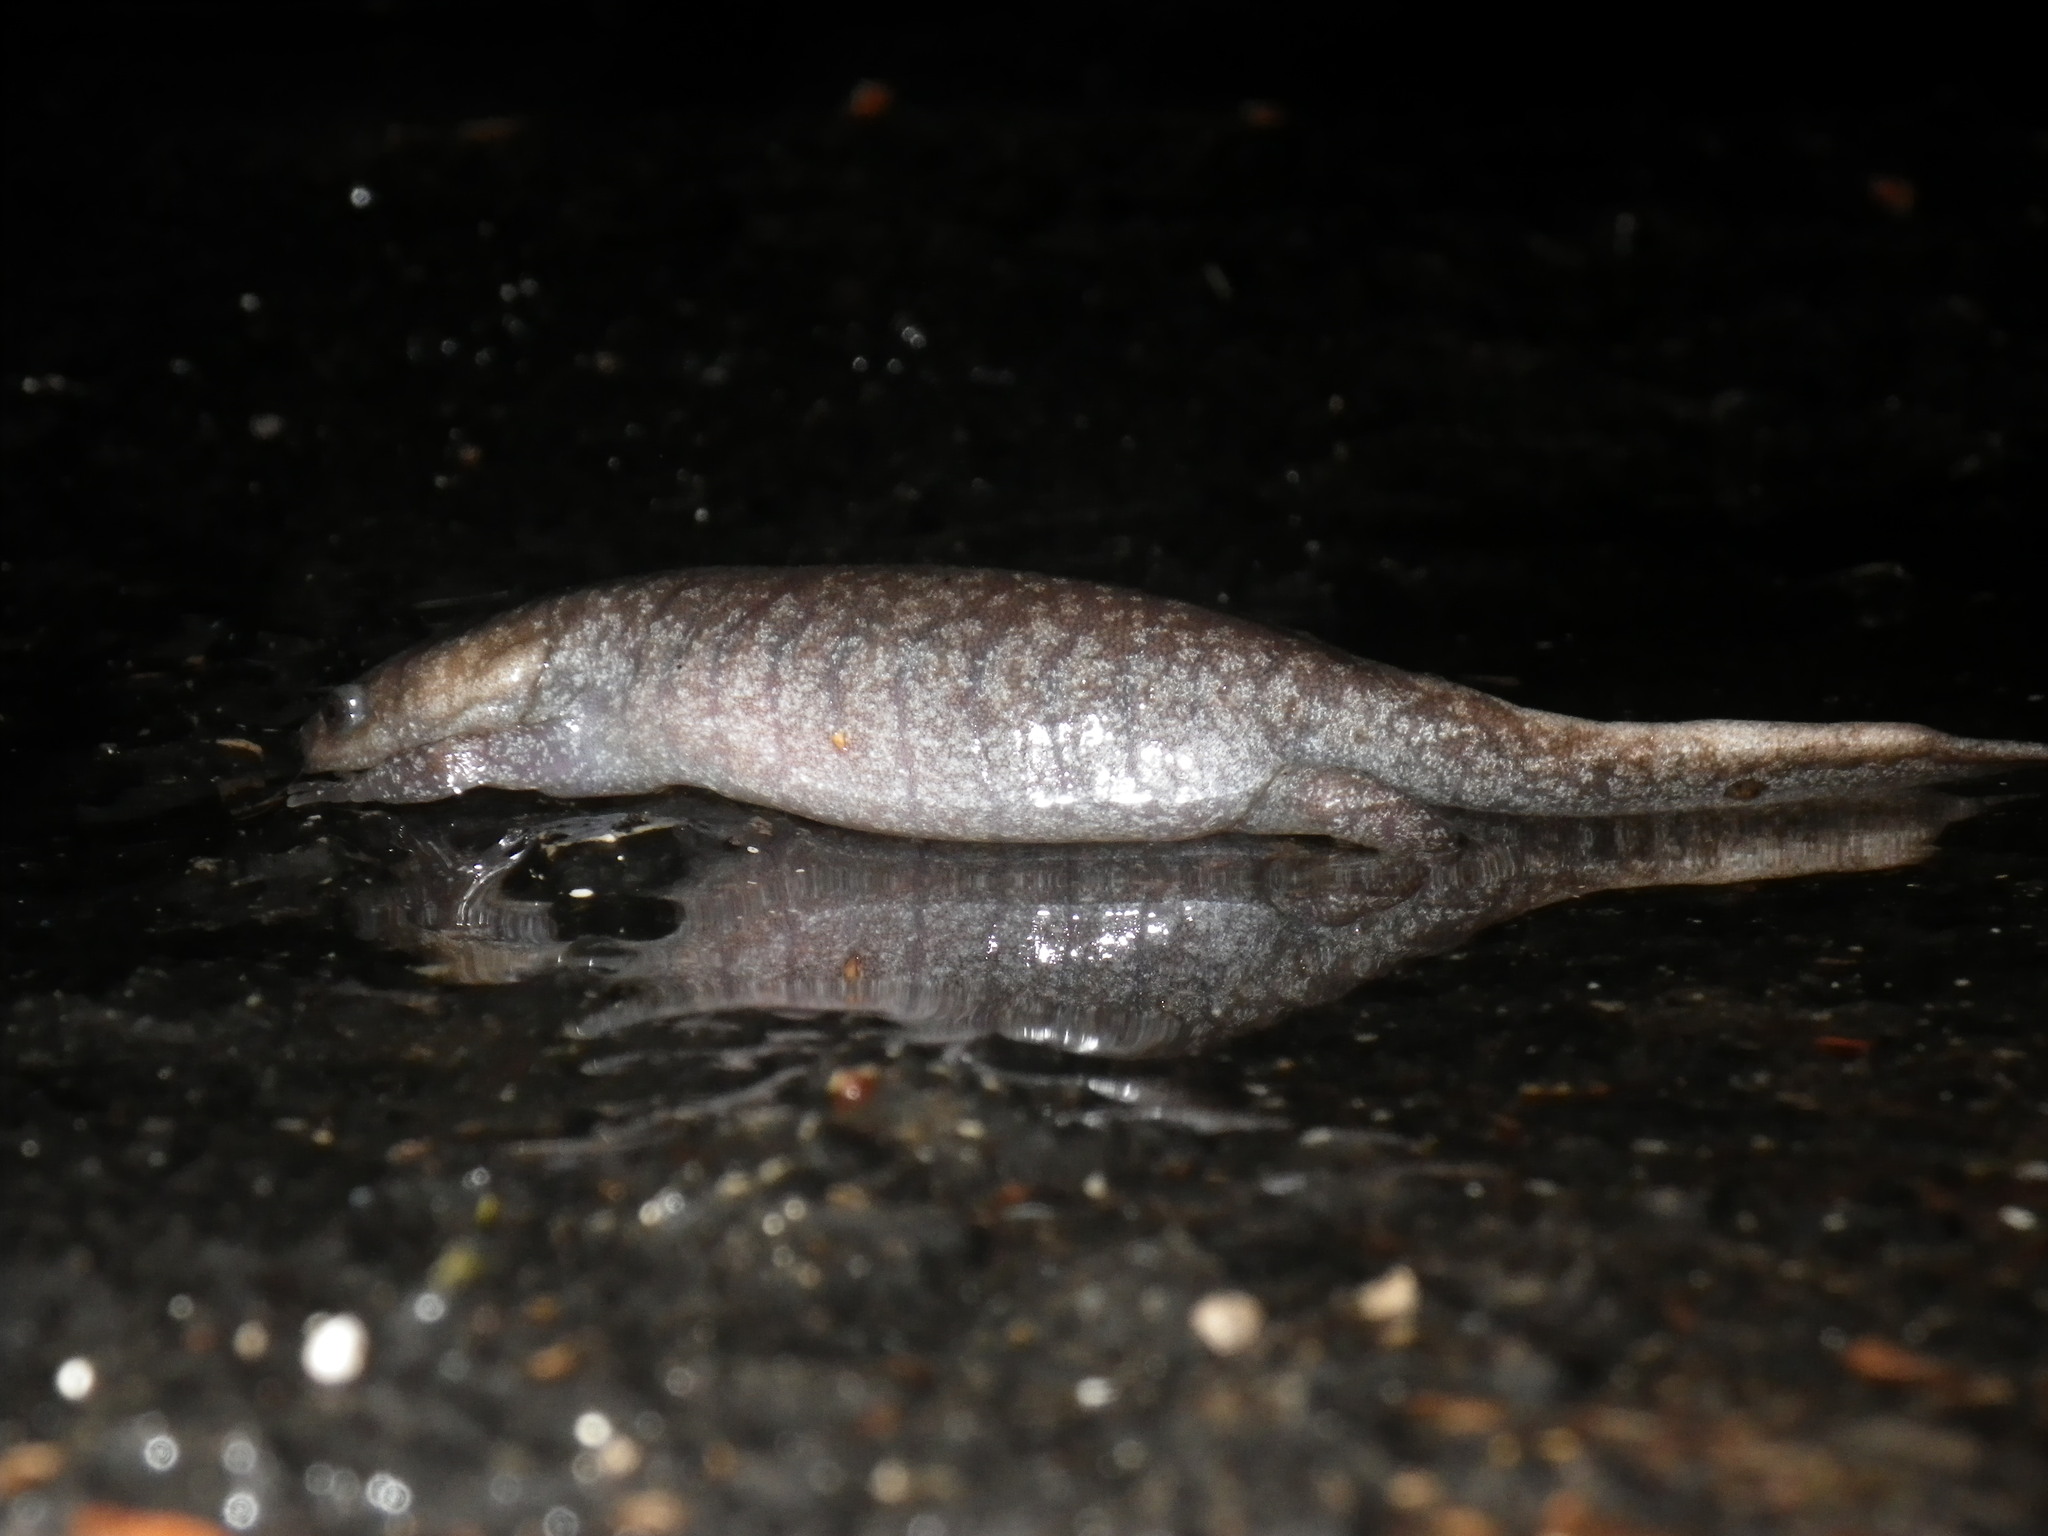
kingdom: Animalia
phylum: Chordata
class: Amphibia
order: Caudata
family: Ambystomatidae
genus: Ambystoma
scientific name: Ambystoma talpoideum
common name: Mole salamander
